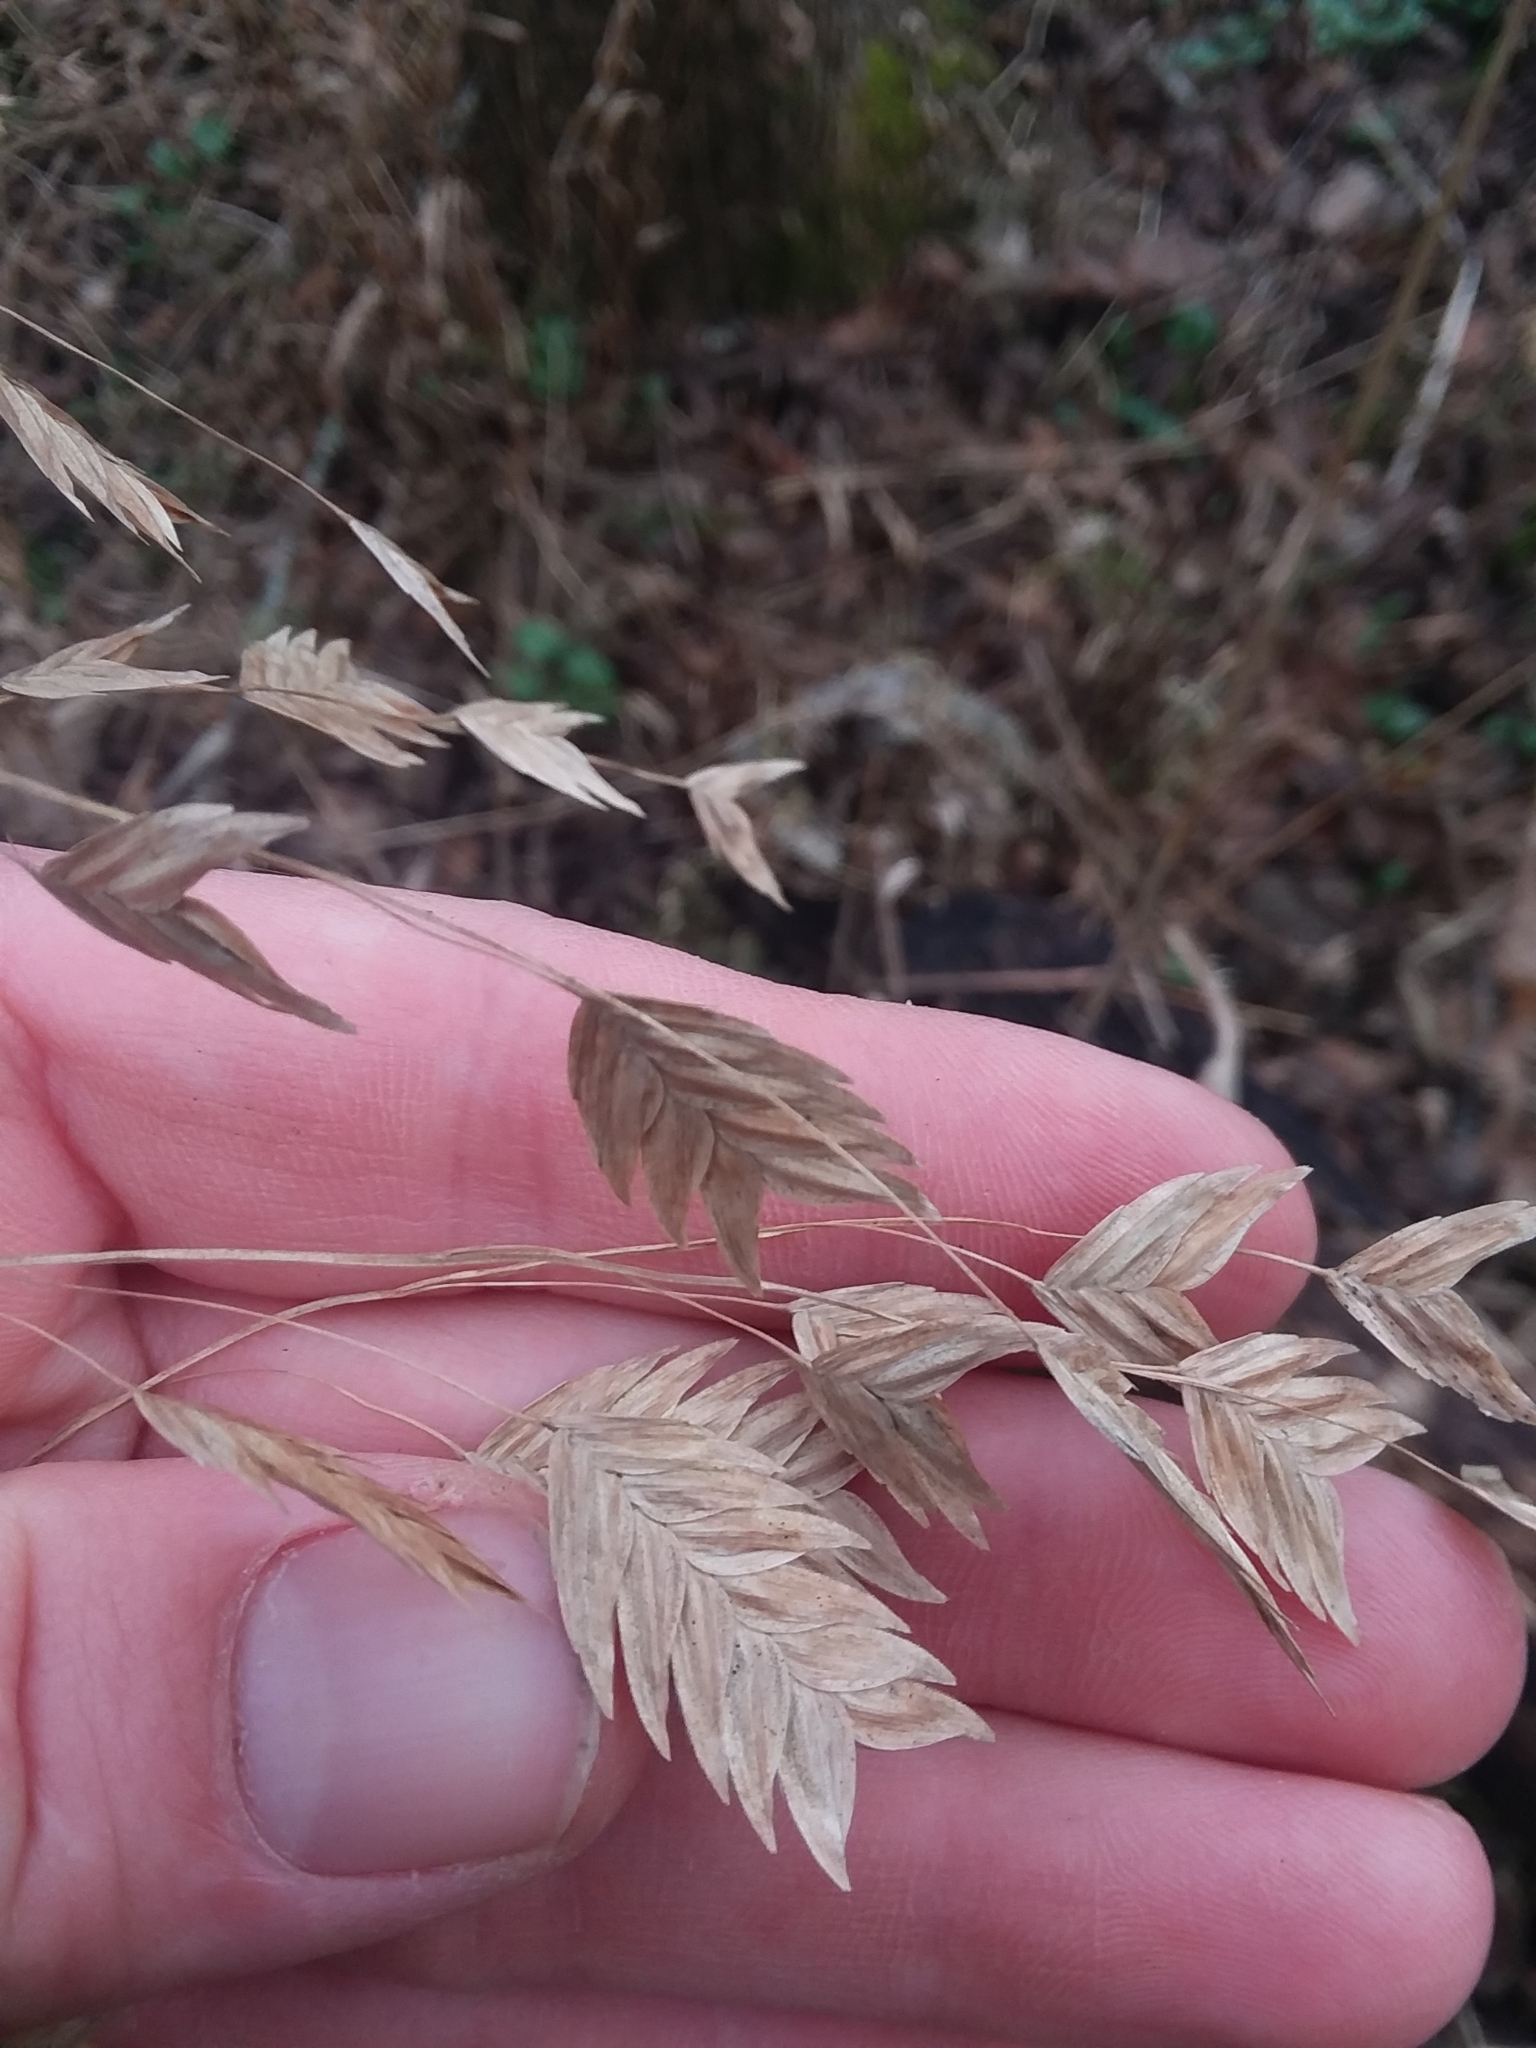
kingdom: Plantae
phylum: Tracheophyta
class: Liliopsida
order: Poales
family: Poaceae
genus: Chasmanthium
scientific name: Chasmanthium latifolium
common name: Broad-leaved chasmanthium
